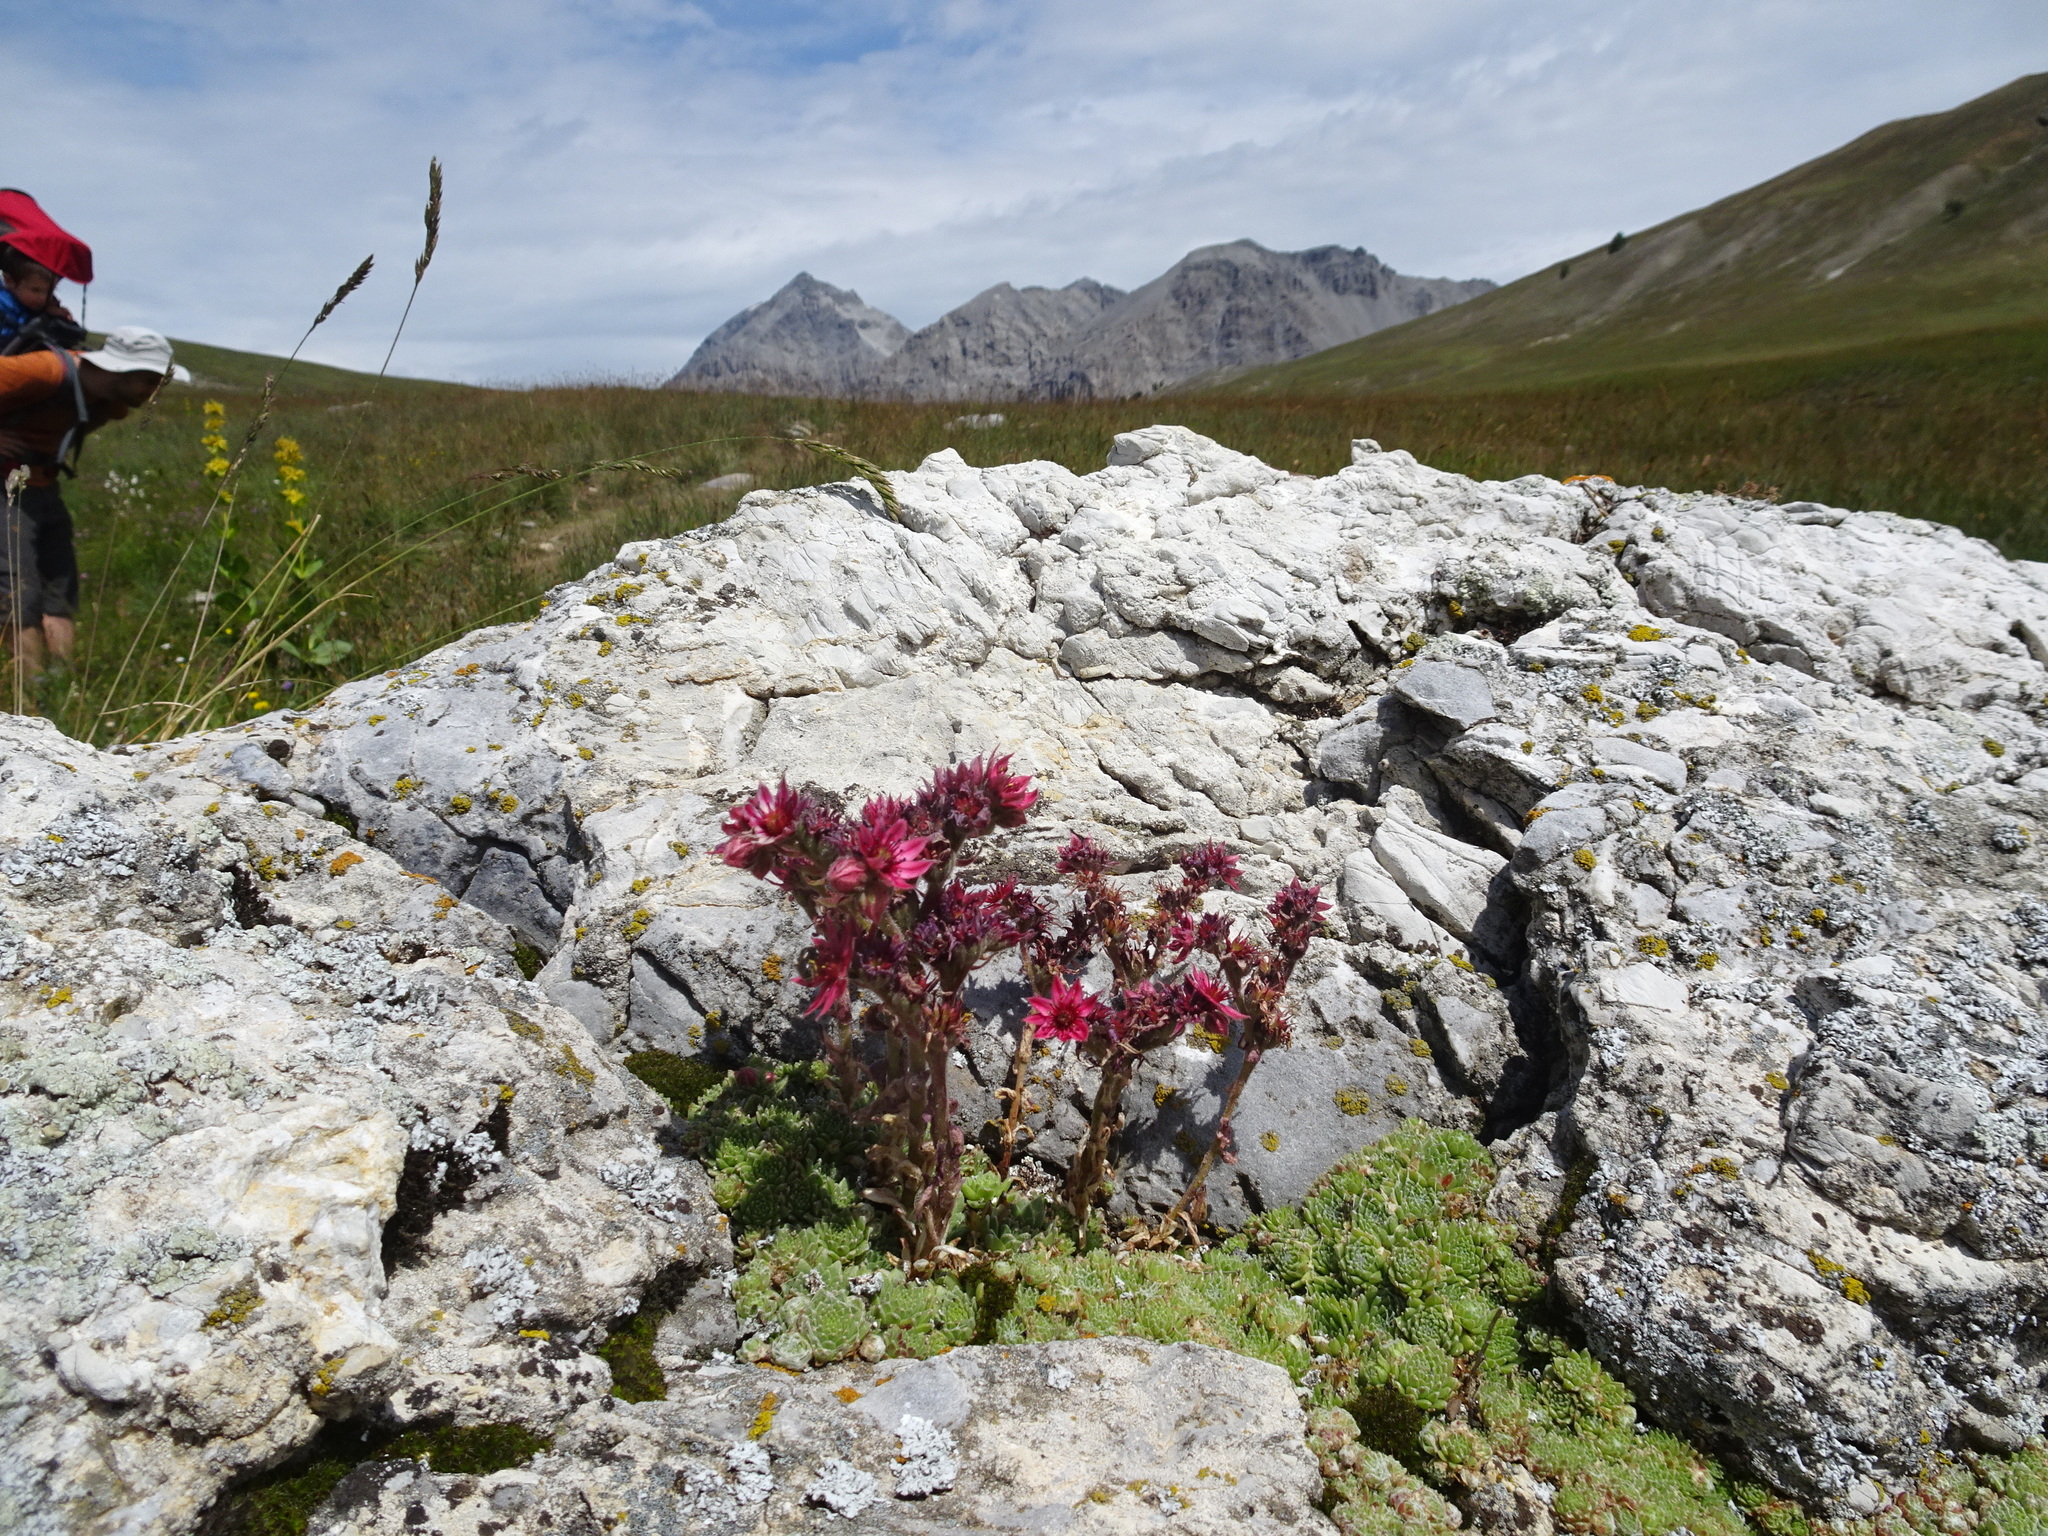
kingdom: Plantae
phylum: Tracheophyta
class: Magnoliopsida
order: Saxifragales
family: Crassulaceae
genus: Sempervivum
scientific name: Sempervivum arachnoideum
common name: Cobweb house-leek
